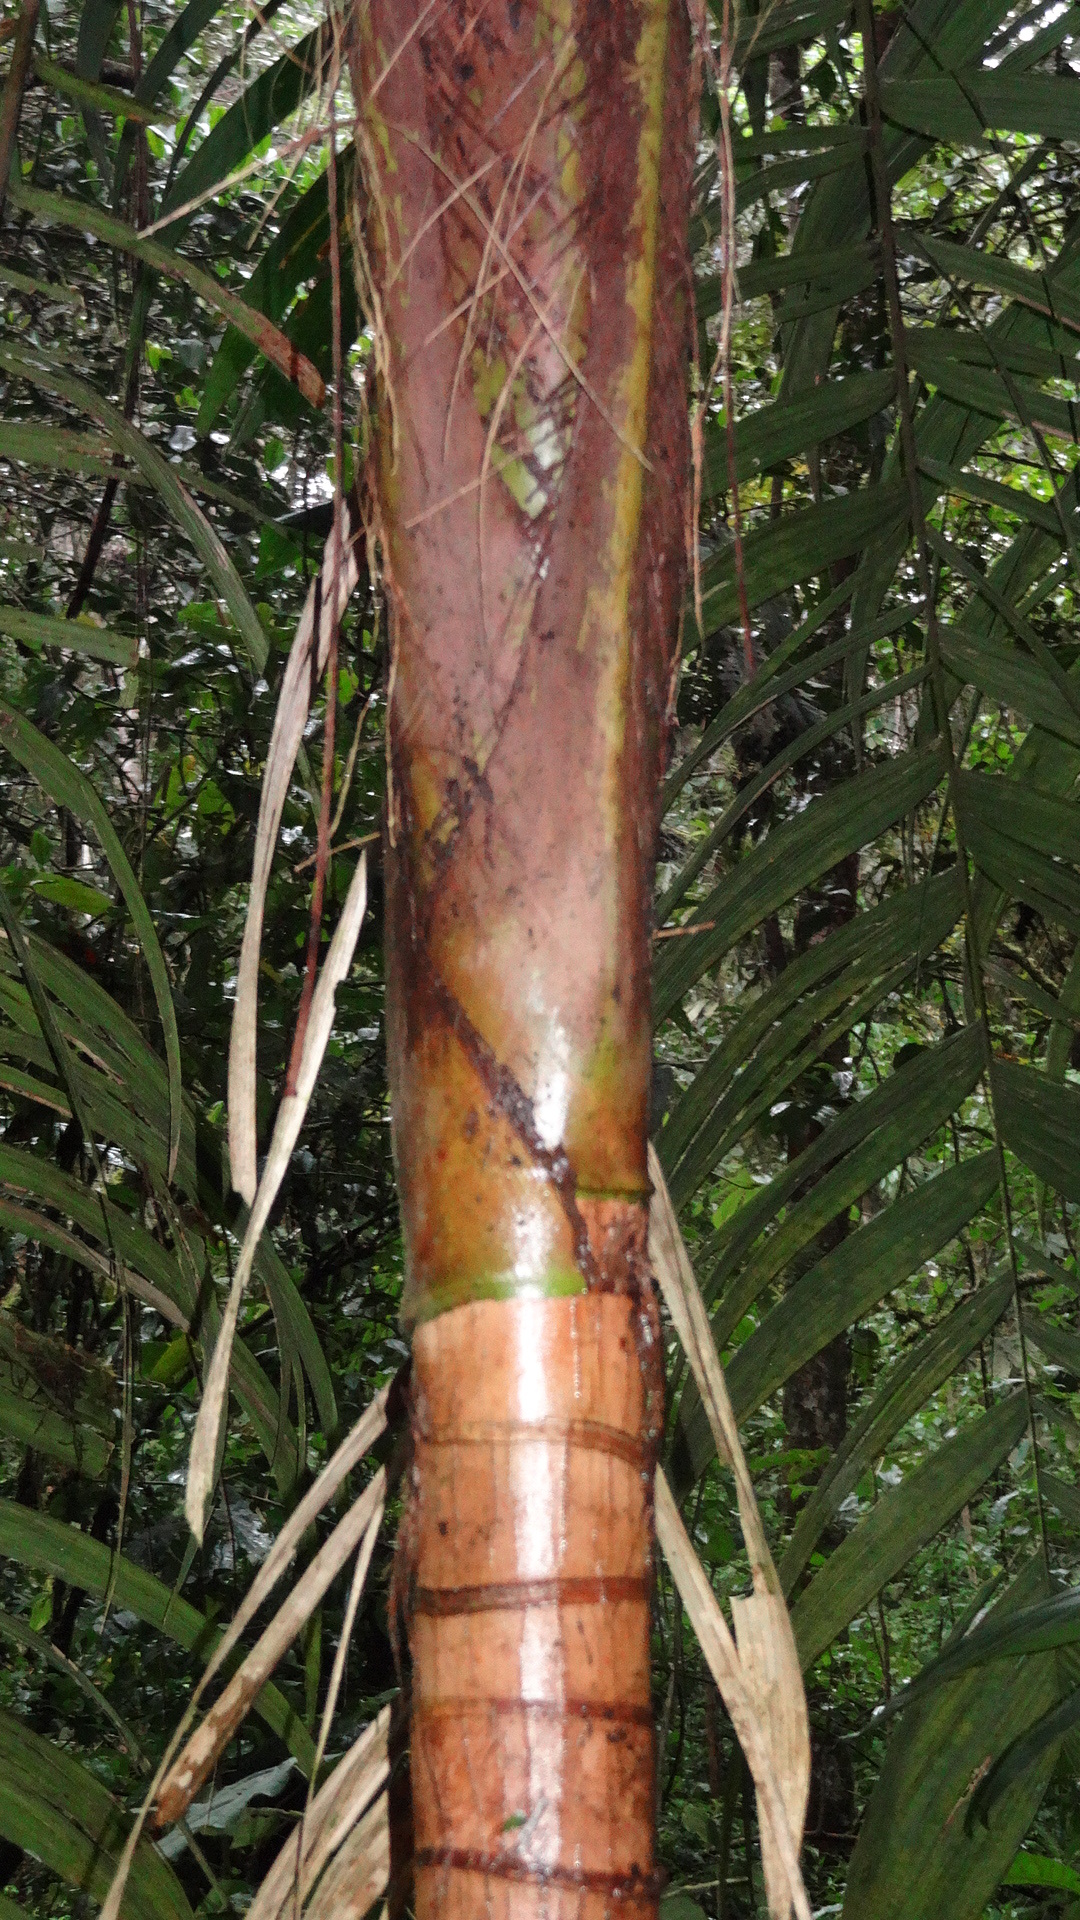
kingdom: Plantae
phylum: Tracheophyta
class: Liliopsida
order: Arecales
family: Arecaceae
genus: Geonoma
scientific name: Geonoma undata
